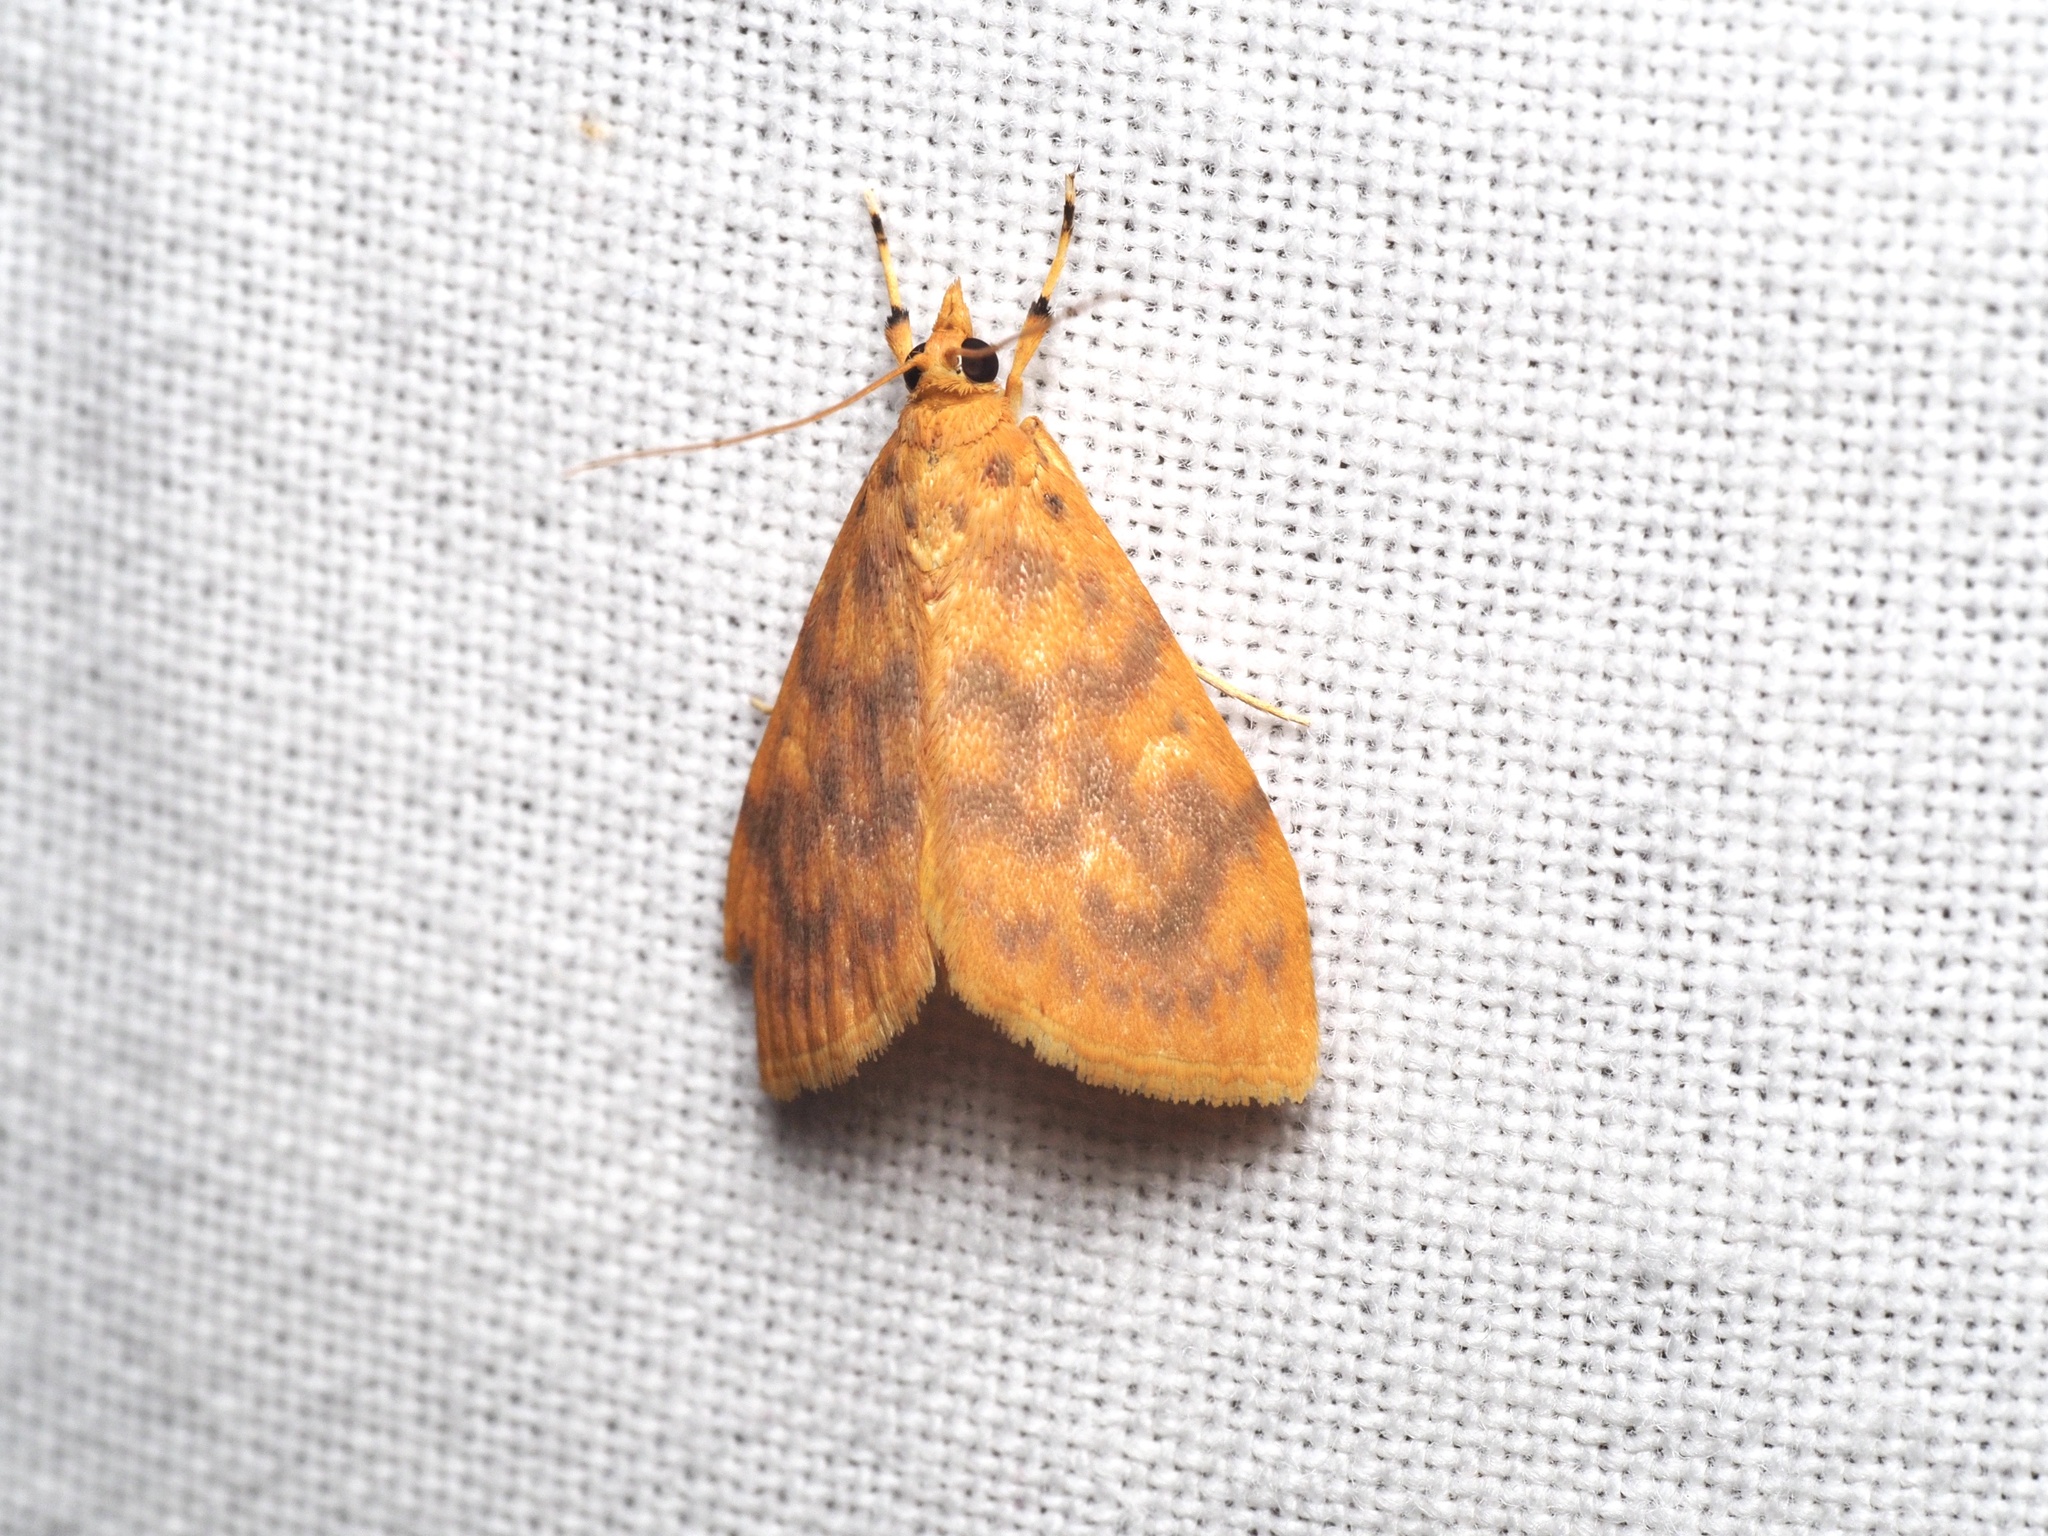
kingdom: Animalia
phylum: Arthropoda
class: Insecta
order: Lepidoptera
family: Crambidae
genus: Epipagis
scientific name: Epipagis olesialis
